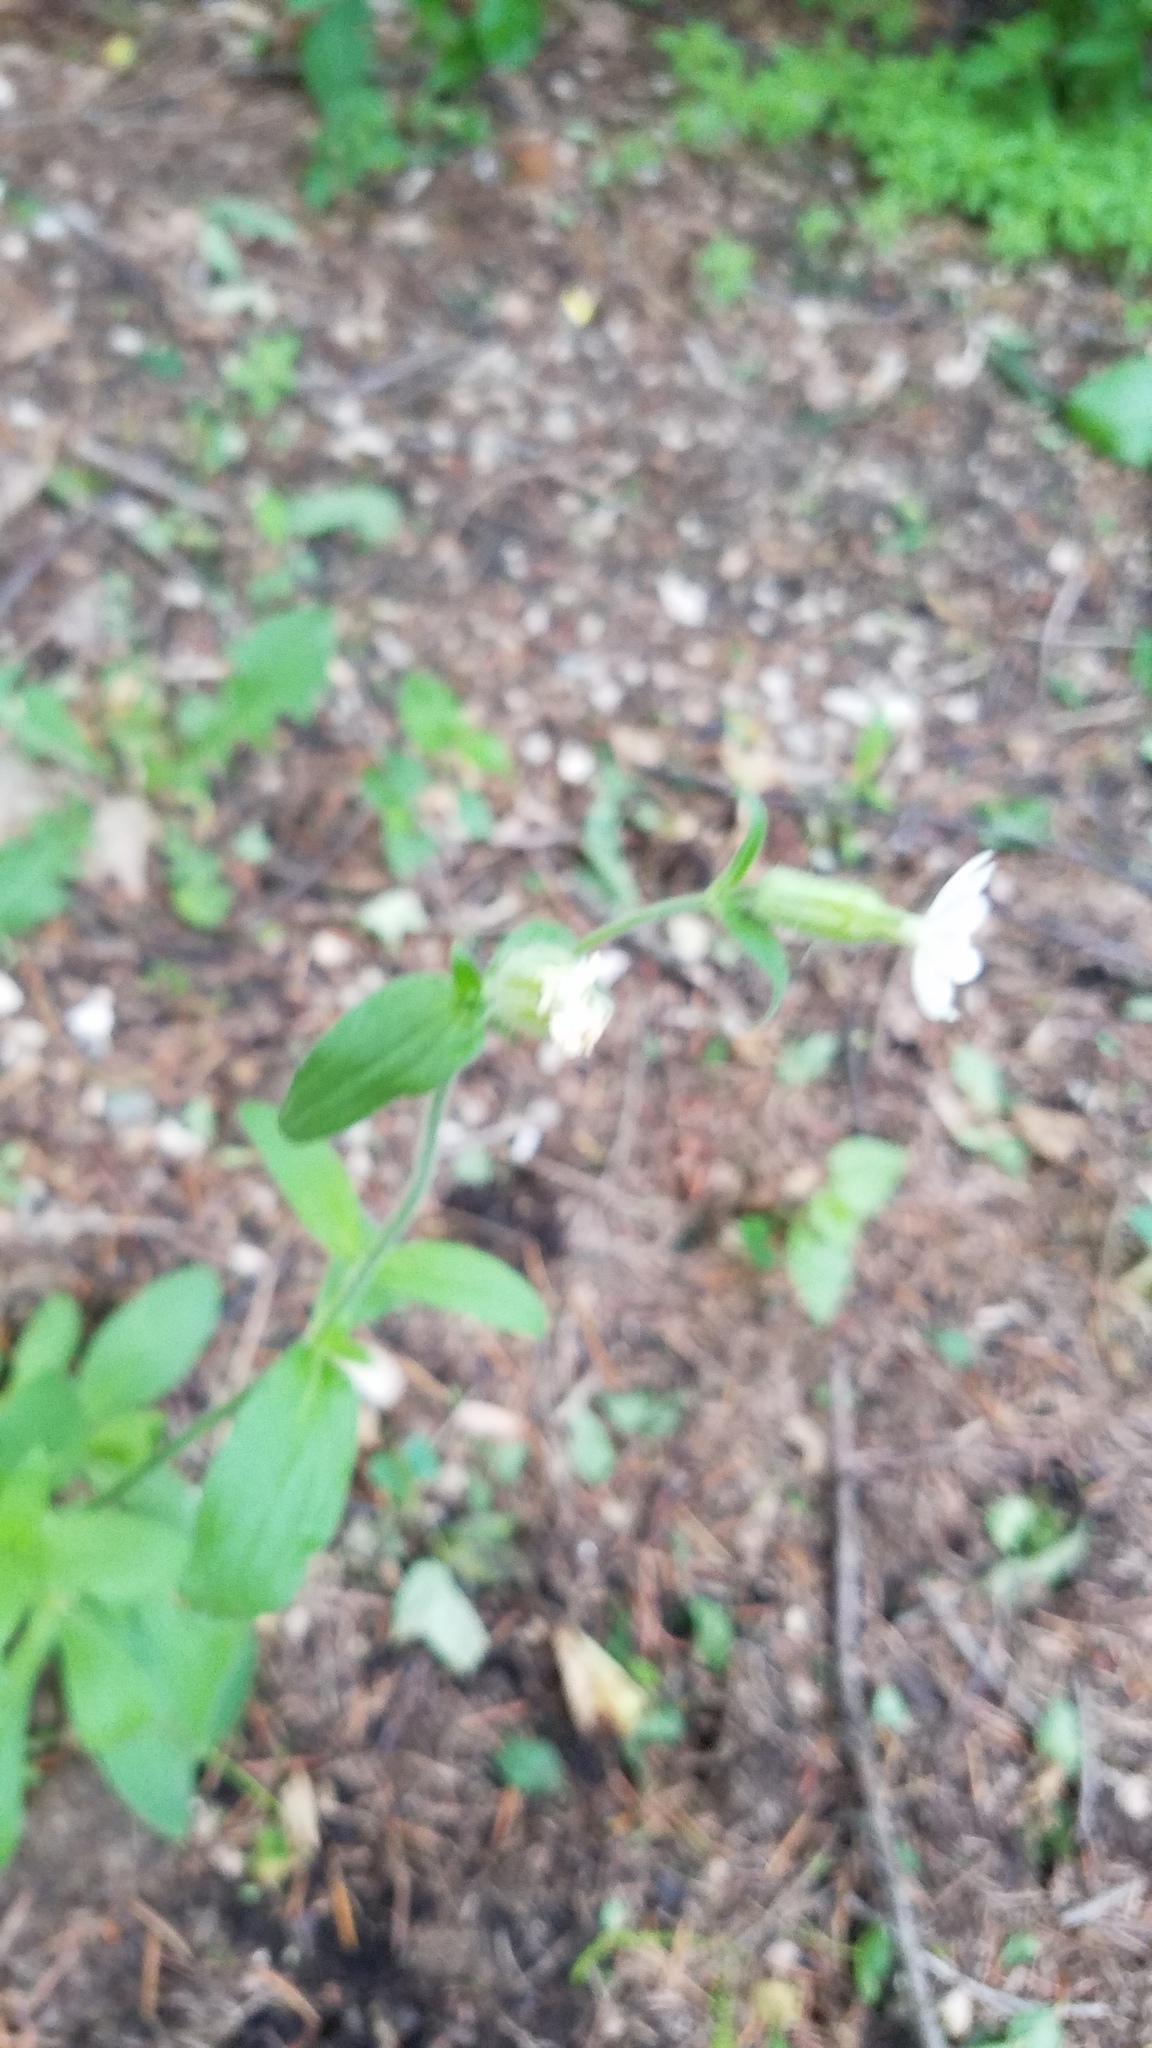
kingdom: Plantae
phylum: Tracheophyta
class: Magnoliopsida
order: Caryophyllales
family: Caryophyllaceae
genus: Silene
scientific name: Silene latifolia
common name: White campion
